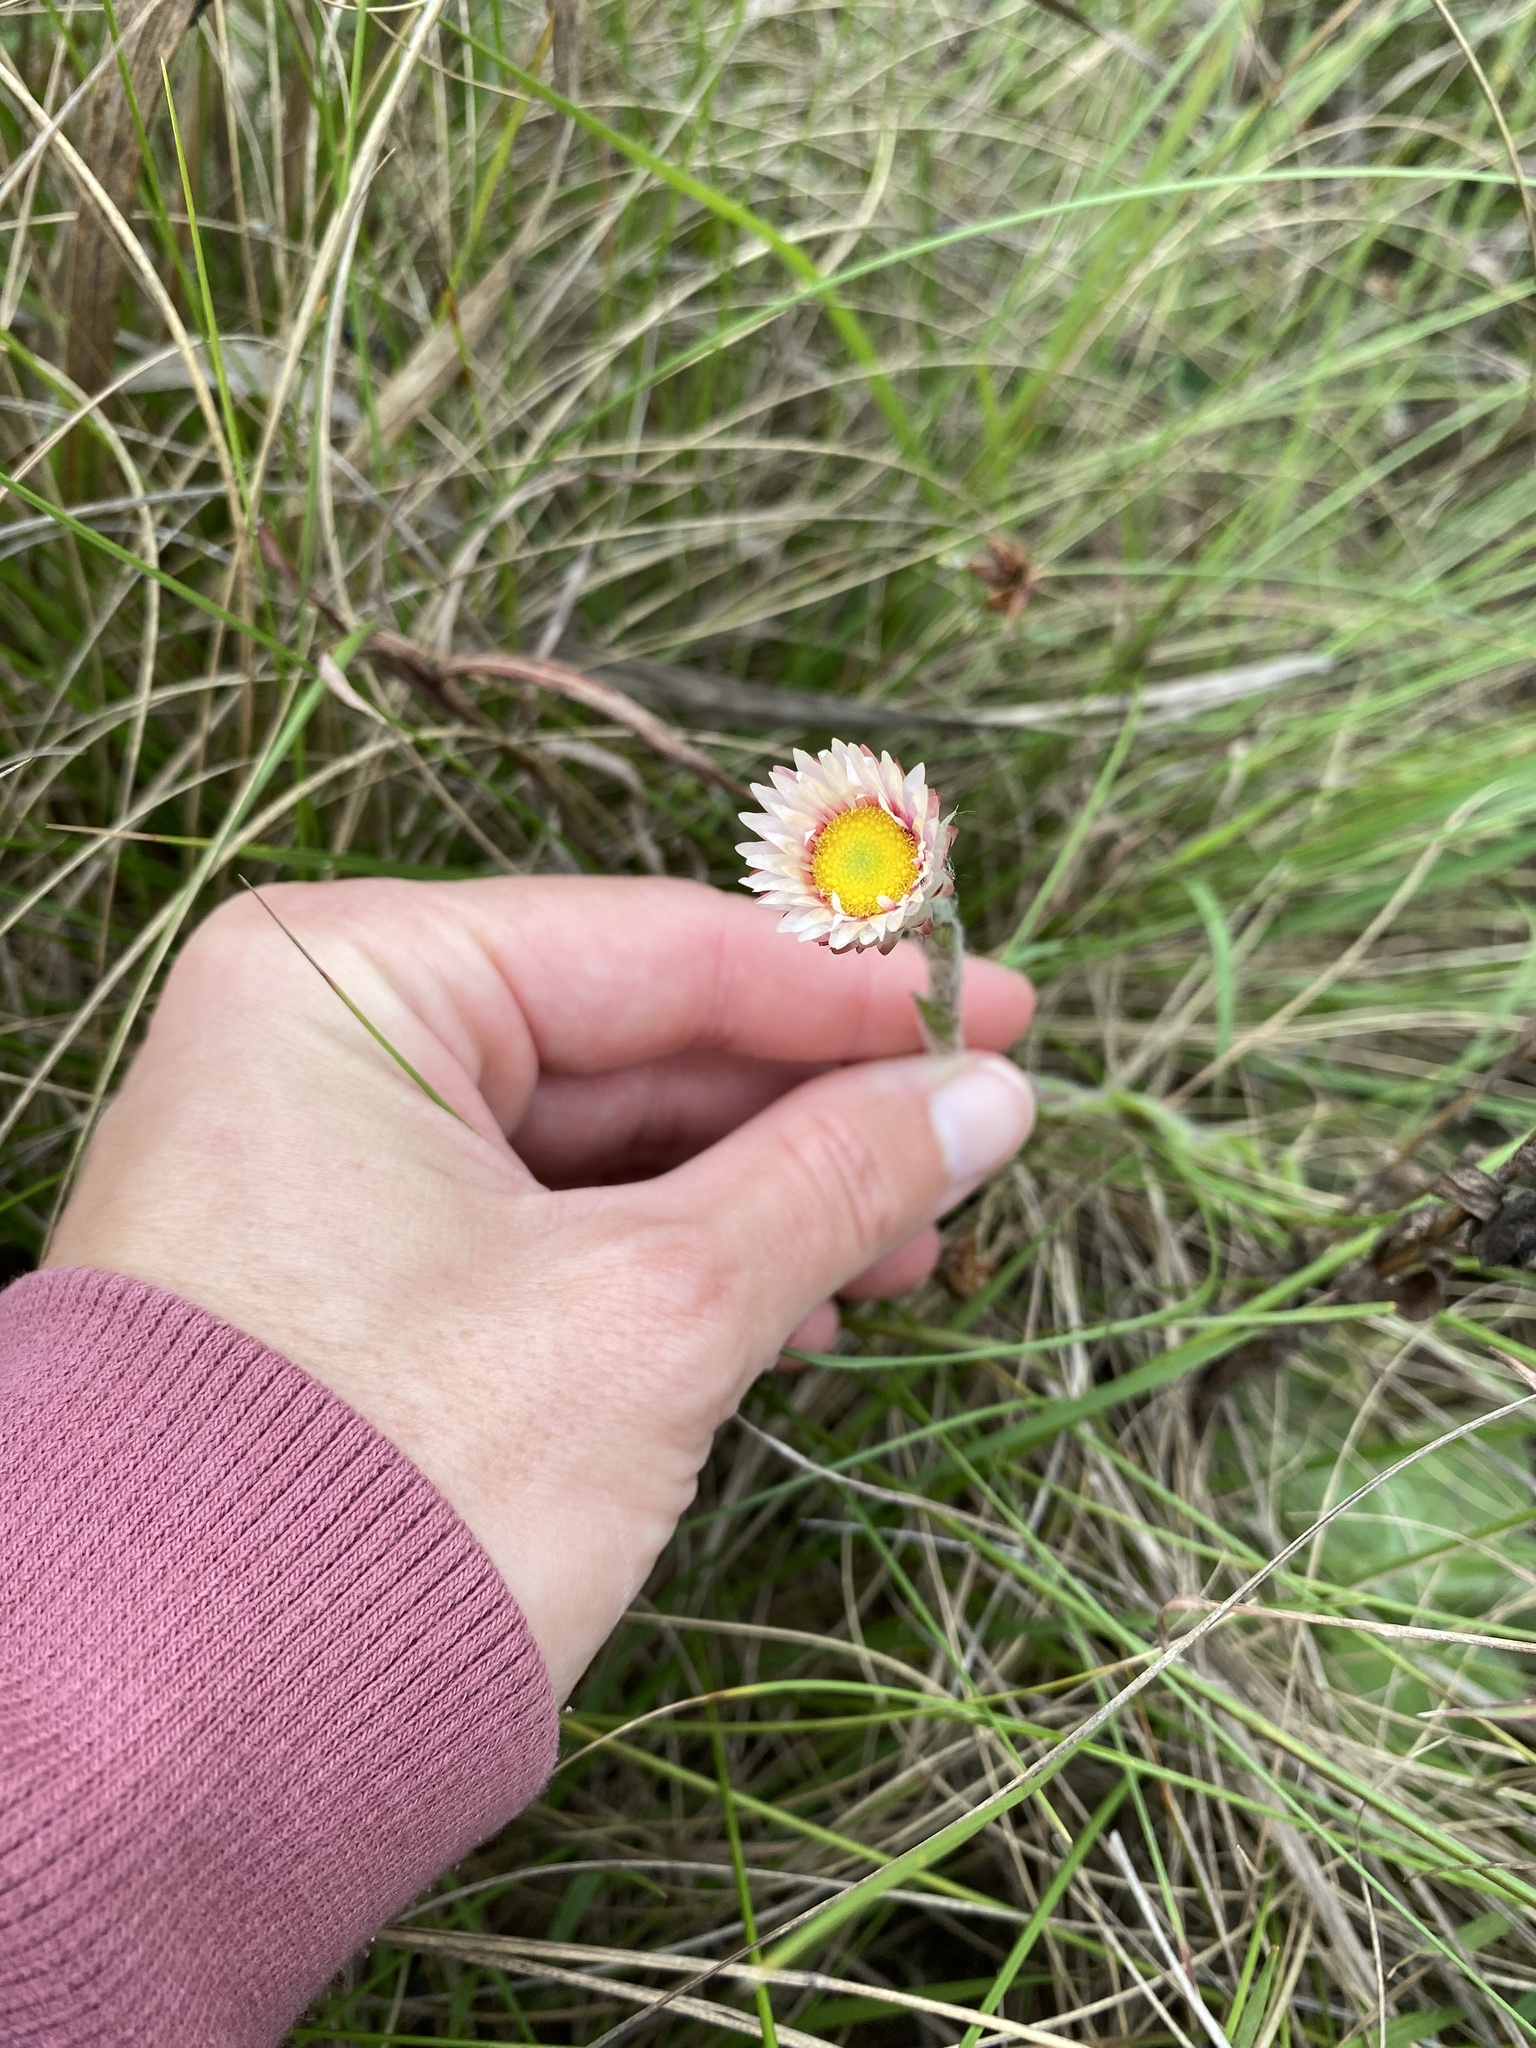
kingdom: Plantae
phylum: Tracheophyta
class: Magnoliopsida
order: Asterales
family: Asteraceae
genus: Helichrysum
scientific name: Helichrysum adenocarpum
